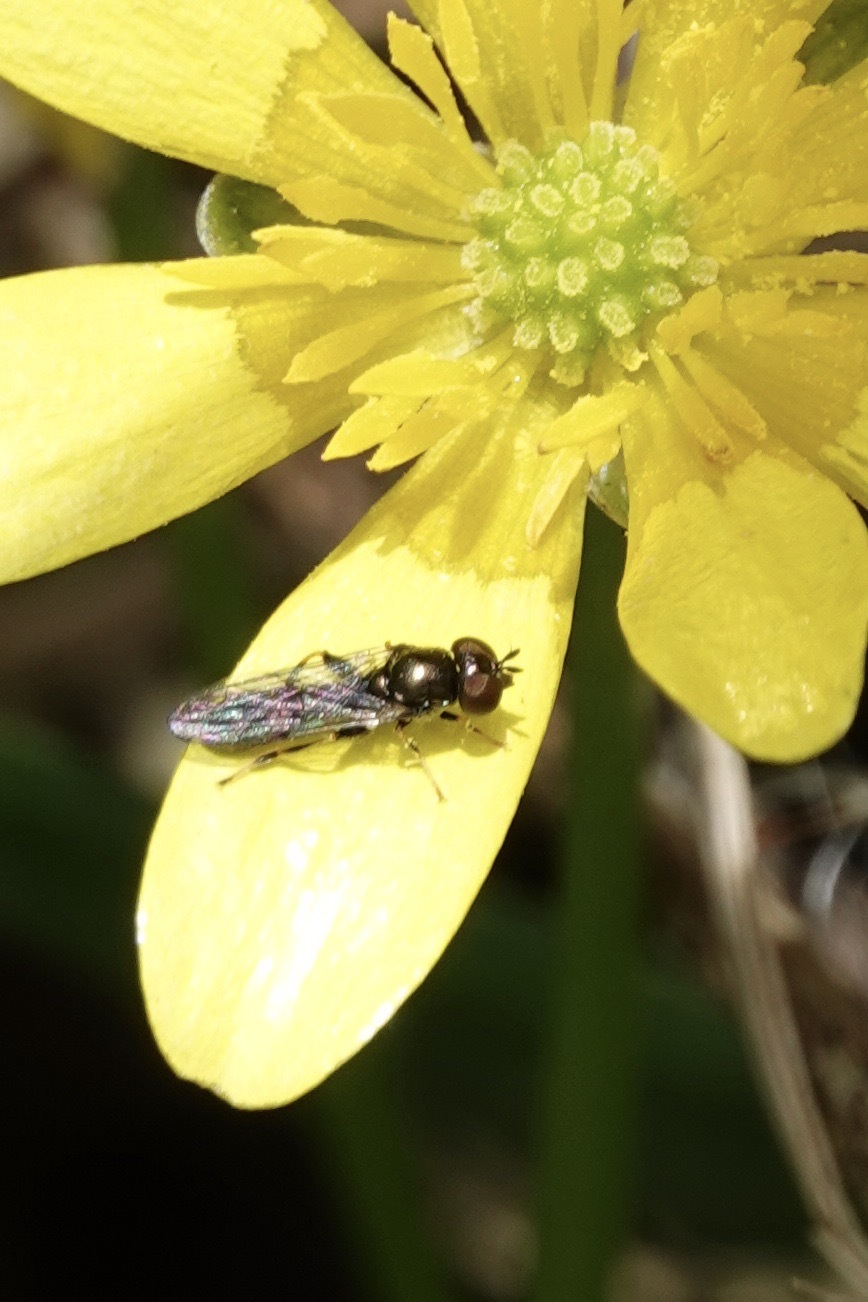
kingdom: Animalia
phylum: Arthropoda
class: Insecta
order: Diptera
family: Syrphidae
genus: Neoascia
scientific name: Neoascia
